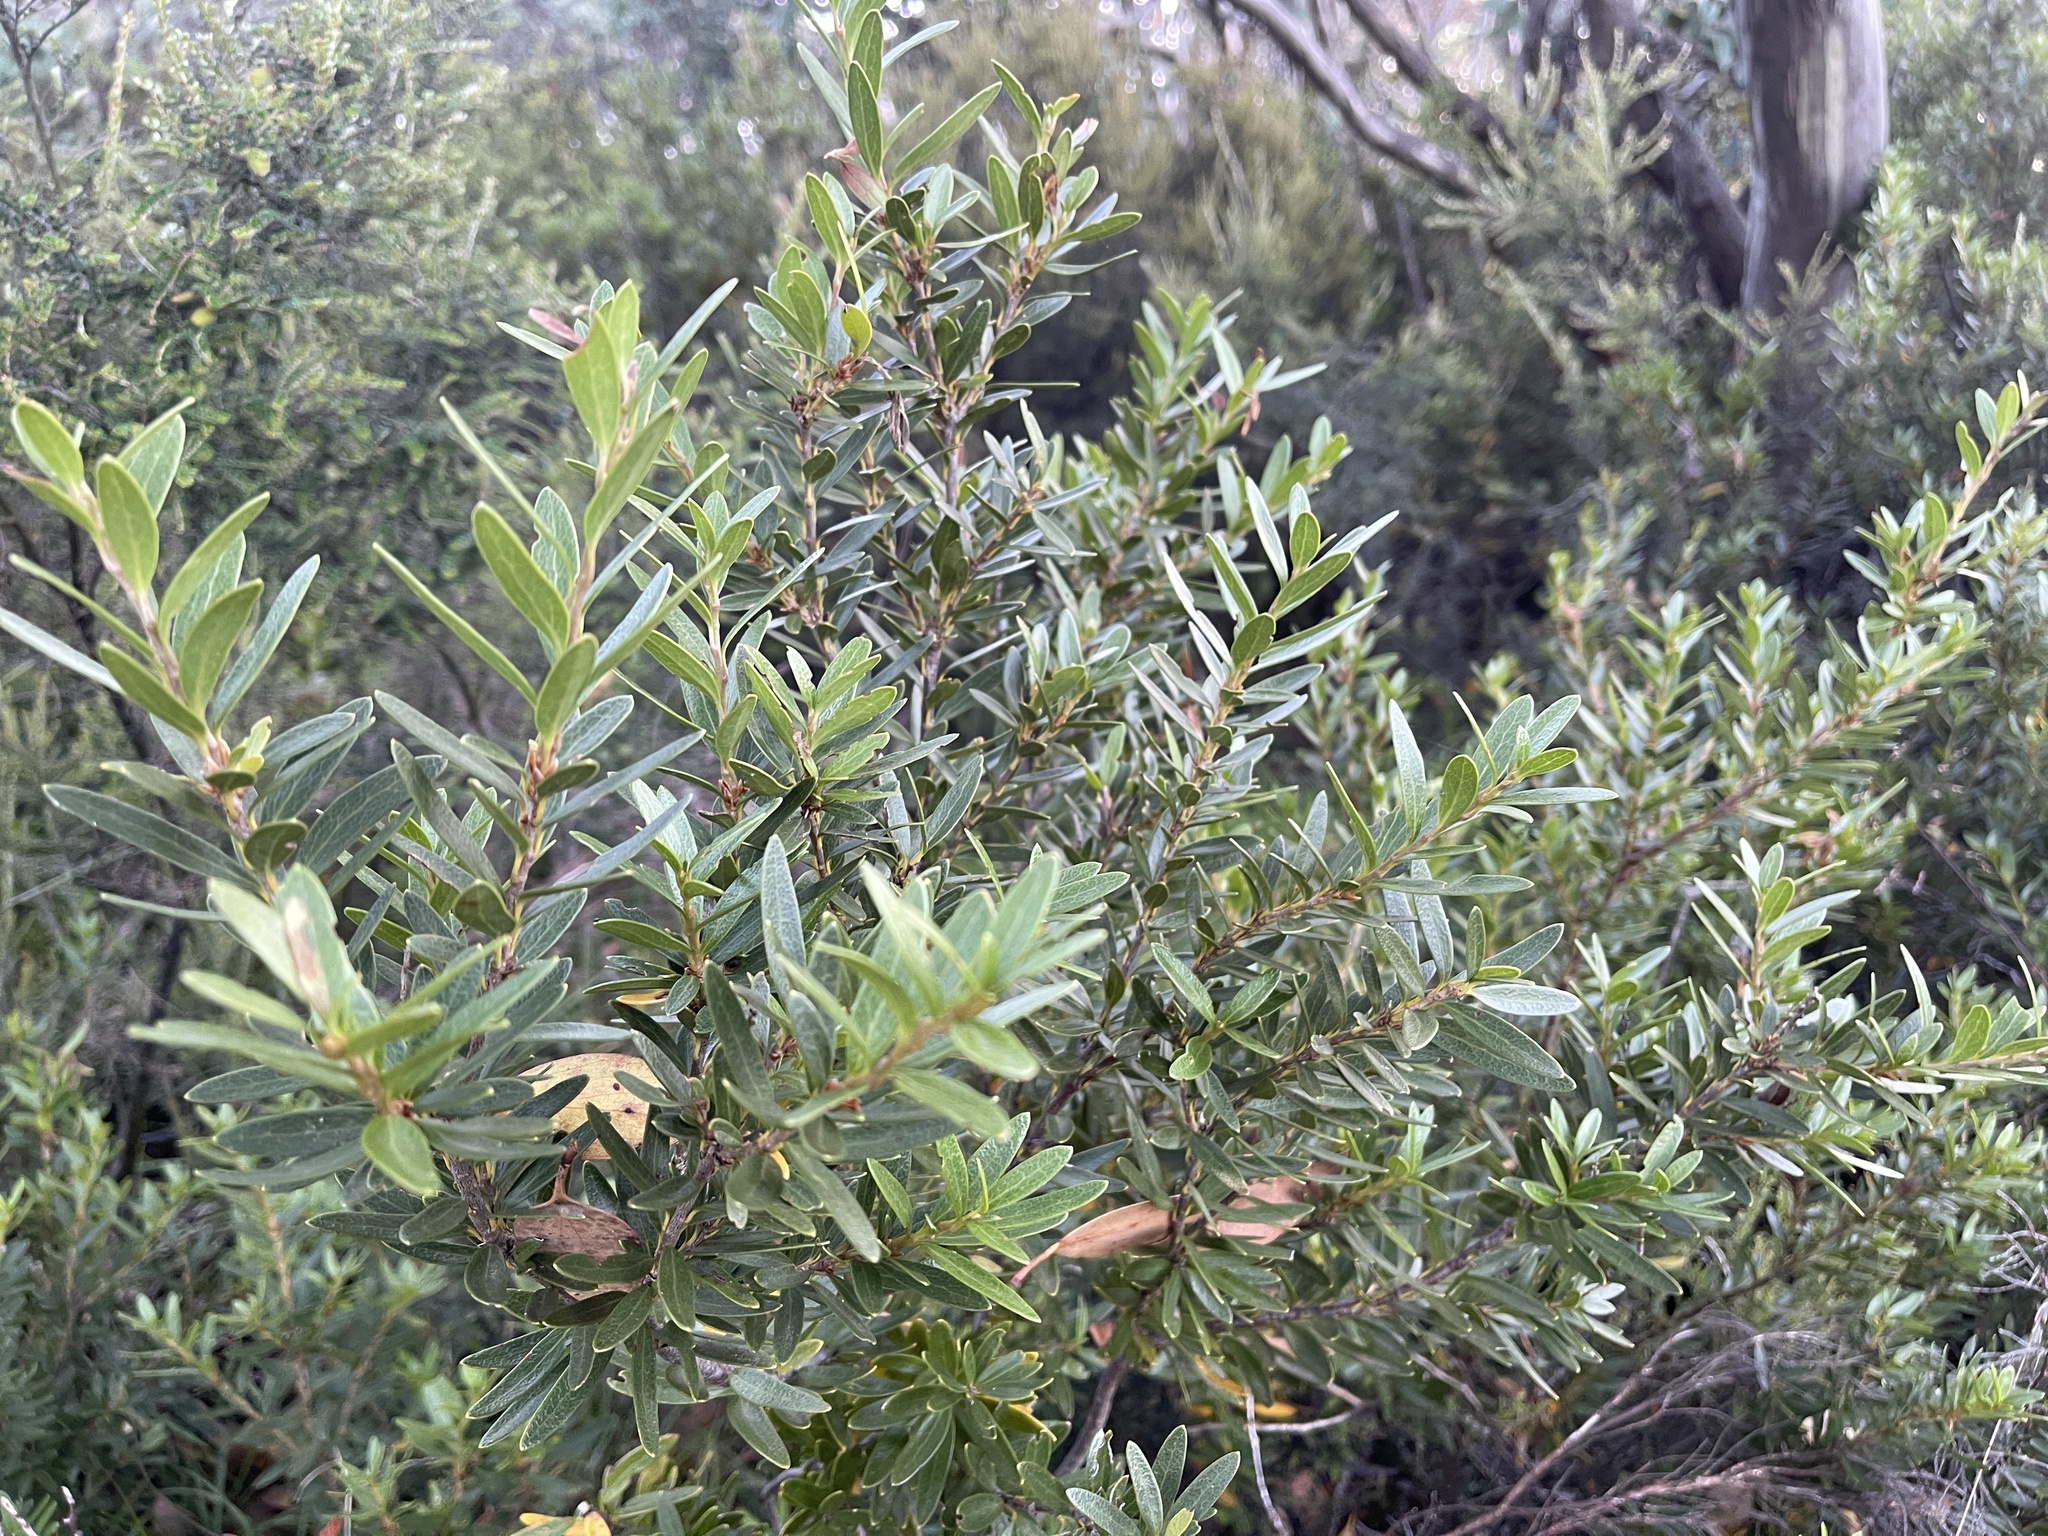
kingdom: Plantae
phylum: Tracheophyta
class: Magnoliopsida
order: Proteales
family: Proteaceae
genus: Orites
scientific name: Orites lancifolius
